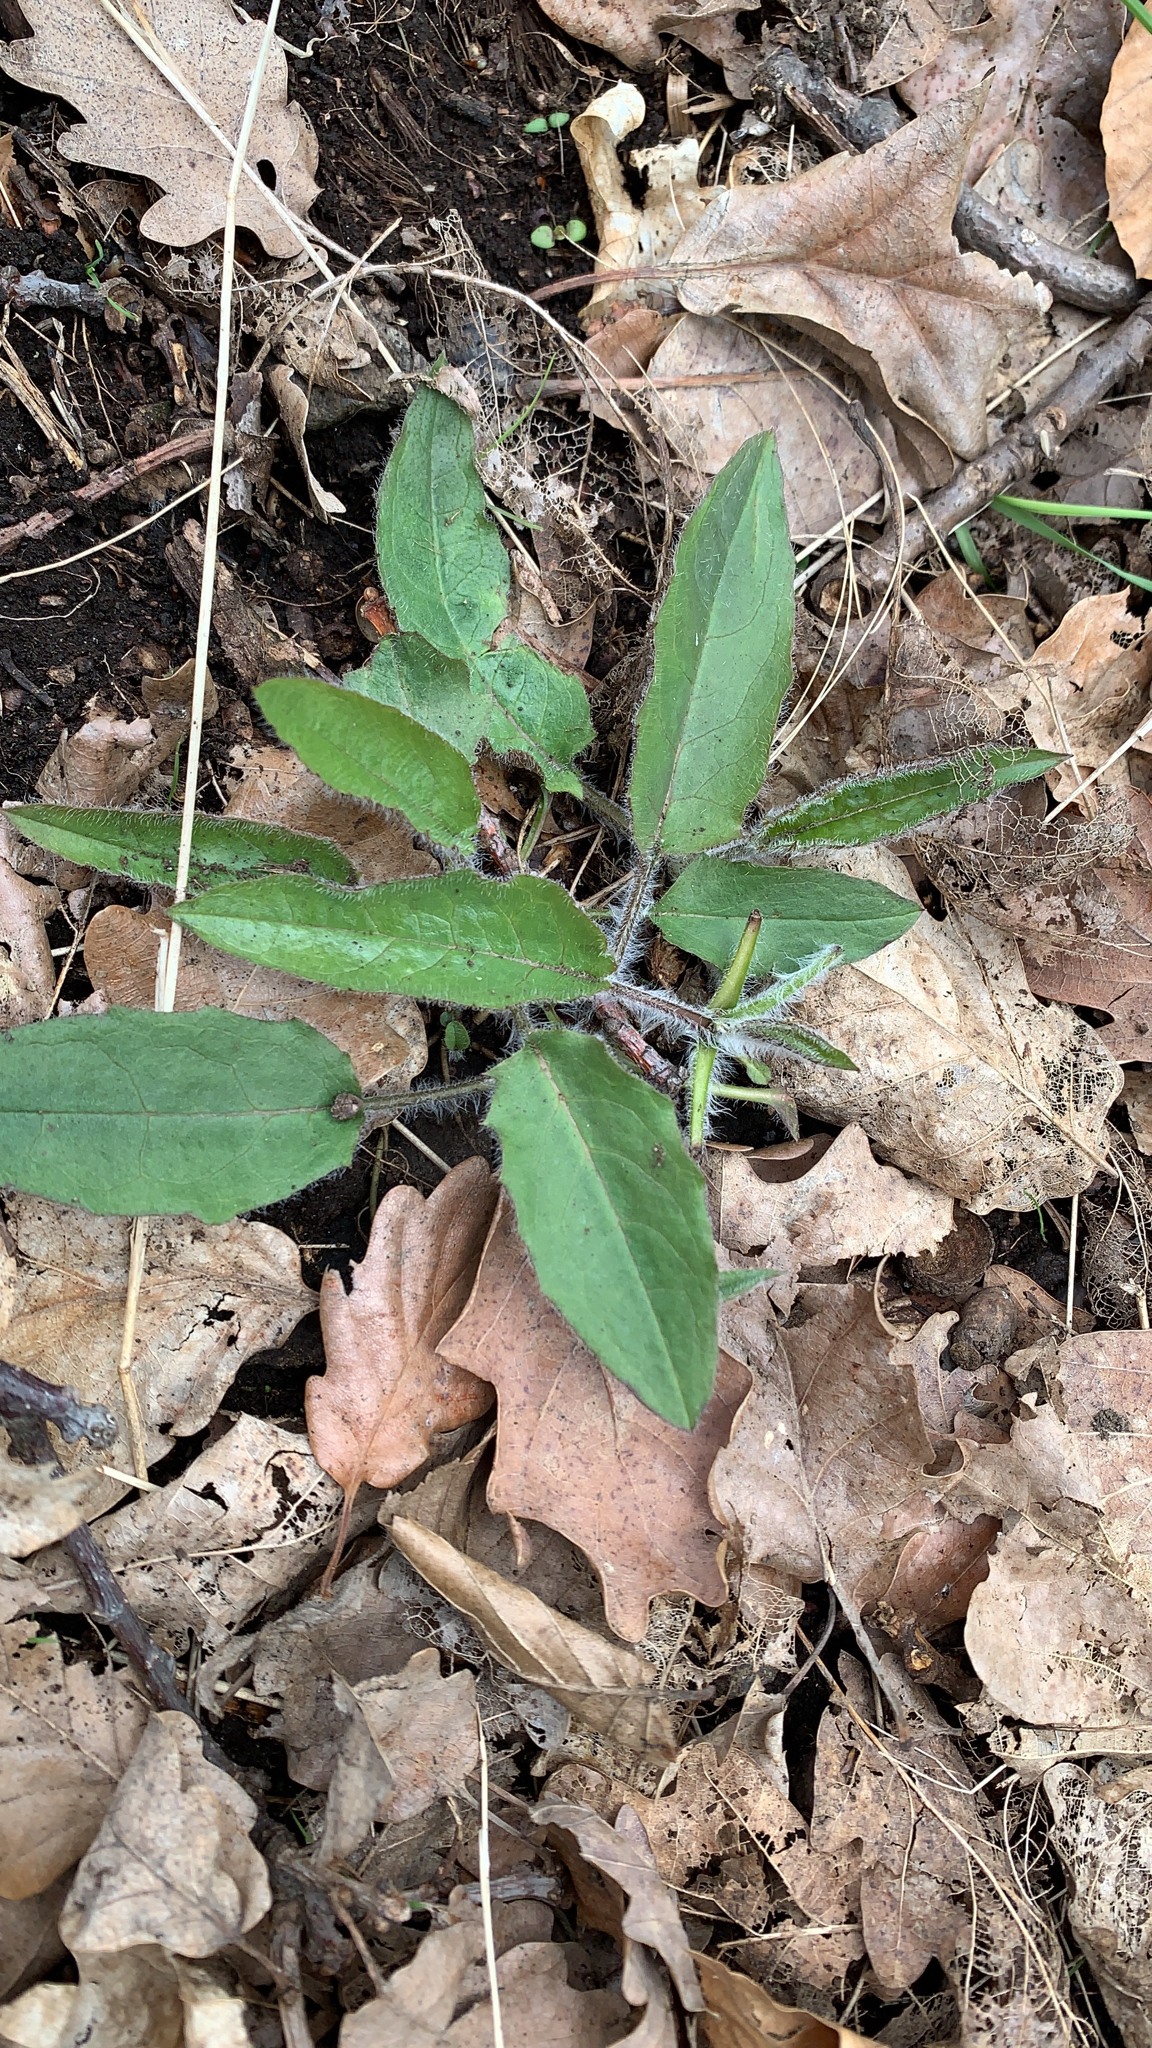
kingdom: Plantae
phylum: Tracheophyta
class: Magnoliopsida
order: Asterales
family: Asteraceae
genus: Hieracium
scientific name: Hieracium murorum
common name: Wall hawkweed
